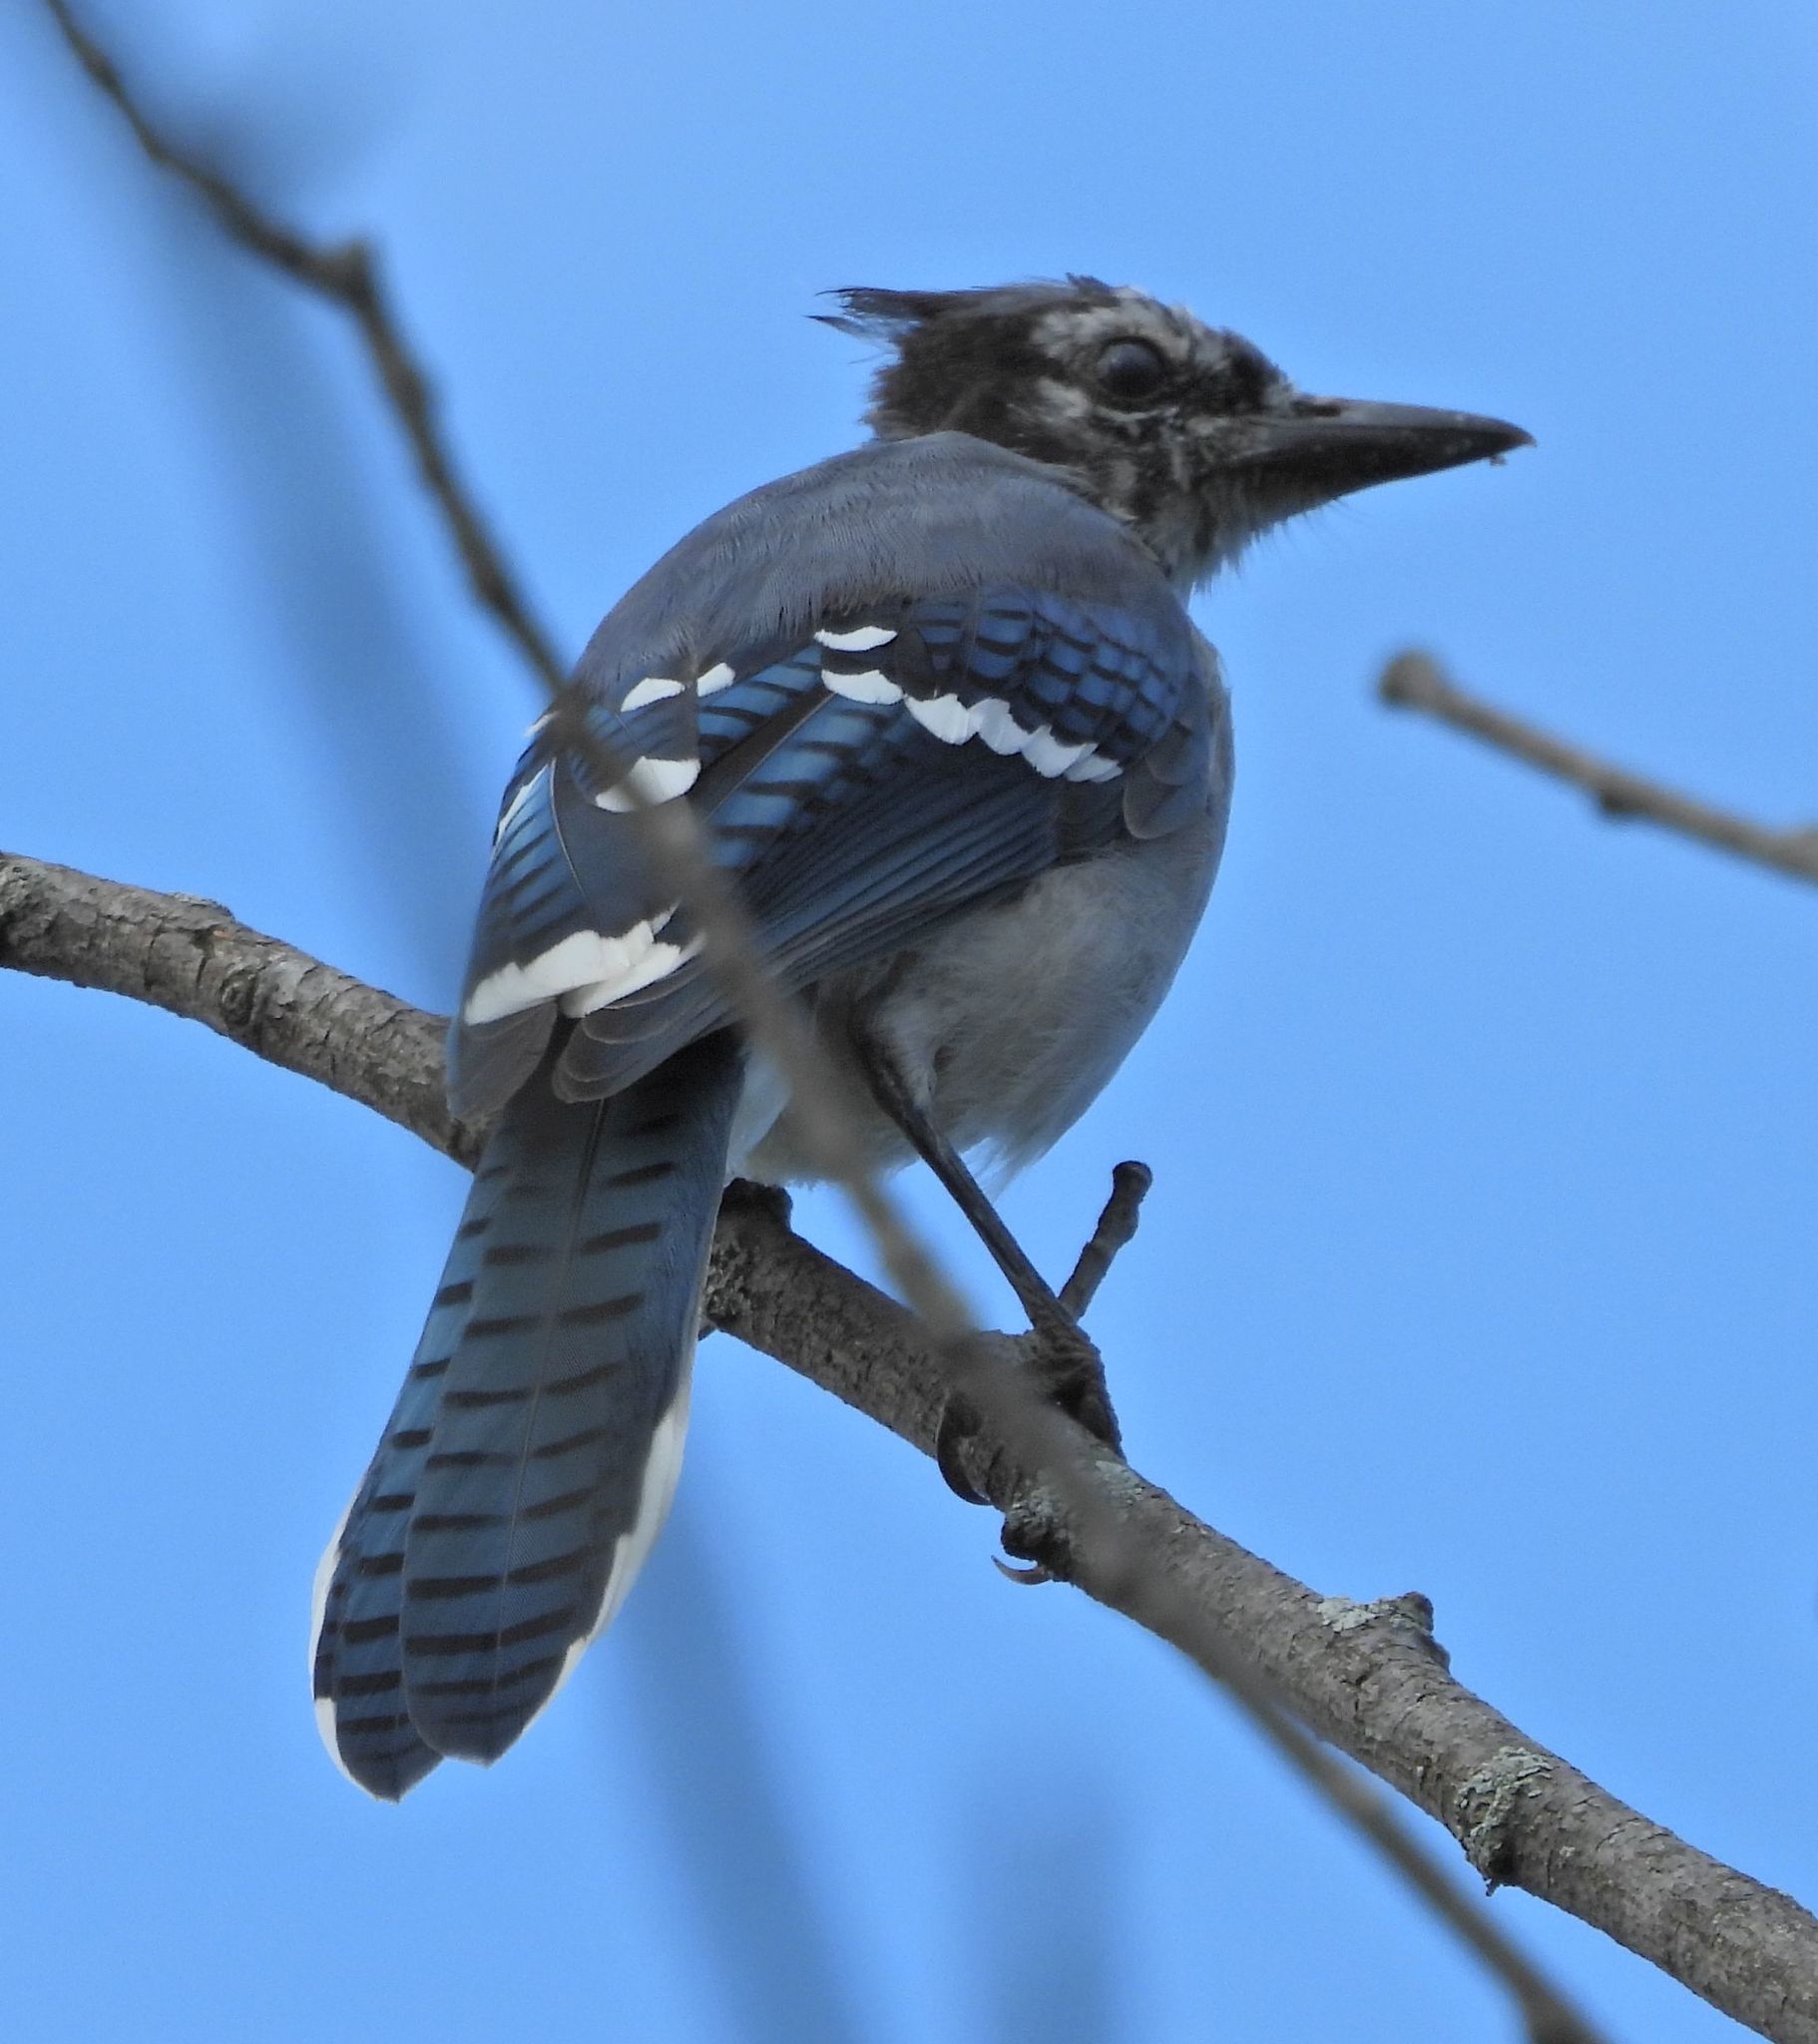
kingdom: Animalia
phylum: Chordata
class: Aves
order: Passeriformes
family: Corvidae
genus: Cyanocitta
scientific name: Cyanocitta cristata
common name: Blue jay
